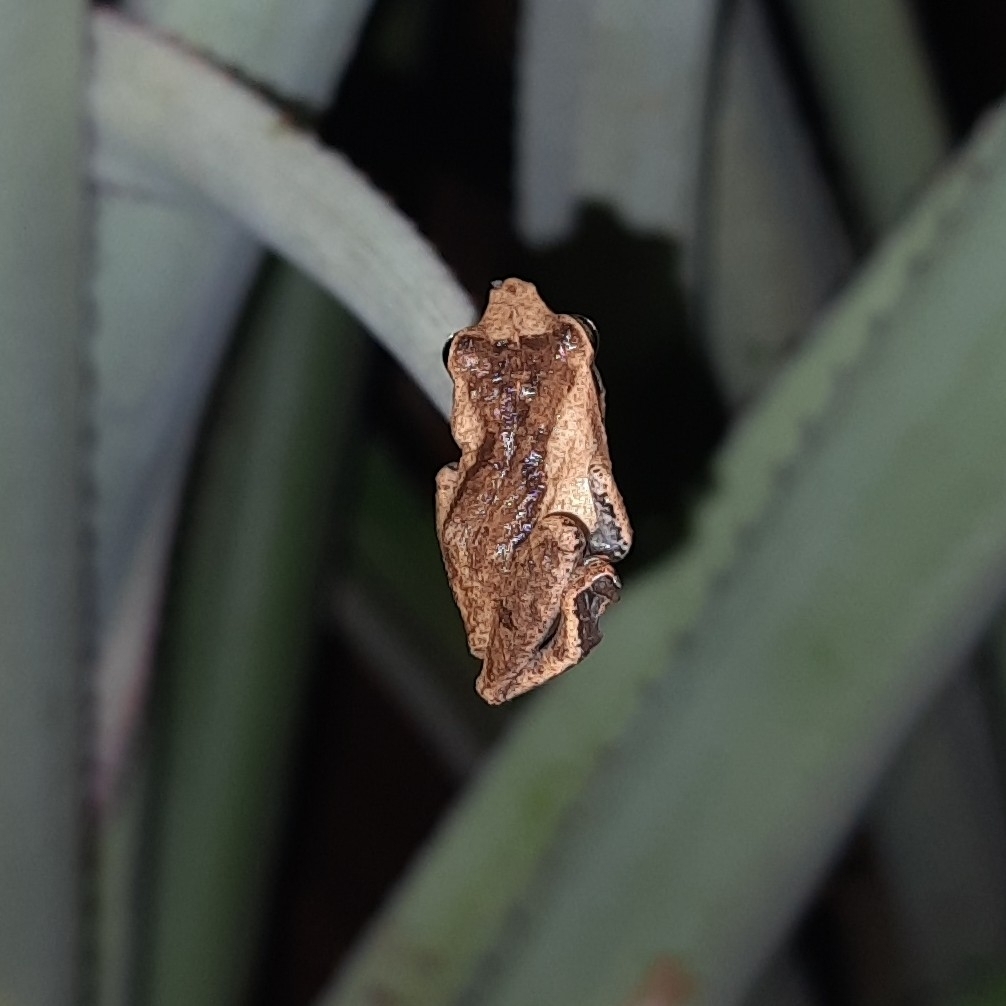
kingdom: Animalia
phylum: Chordata
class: Amphibia
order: Anura
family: Rhacophoridae
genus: Pseudophilautus
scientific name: Pseudophilautus wynaadensis
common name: Dark-eared bush frog
